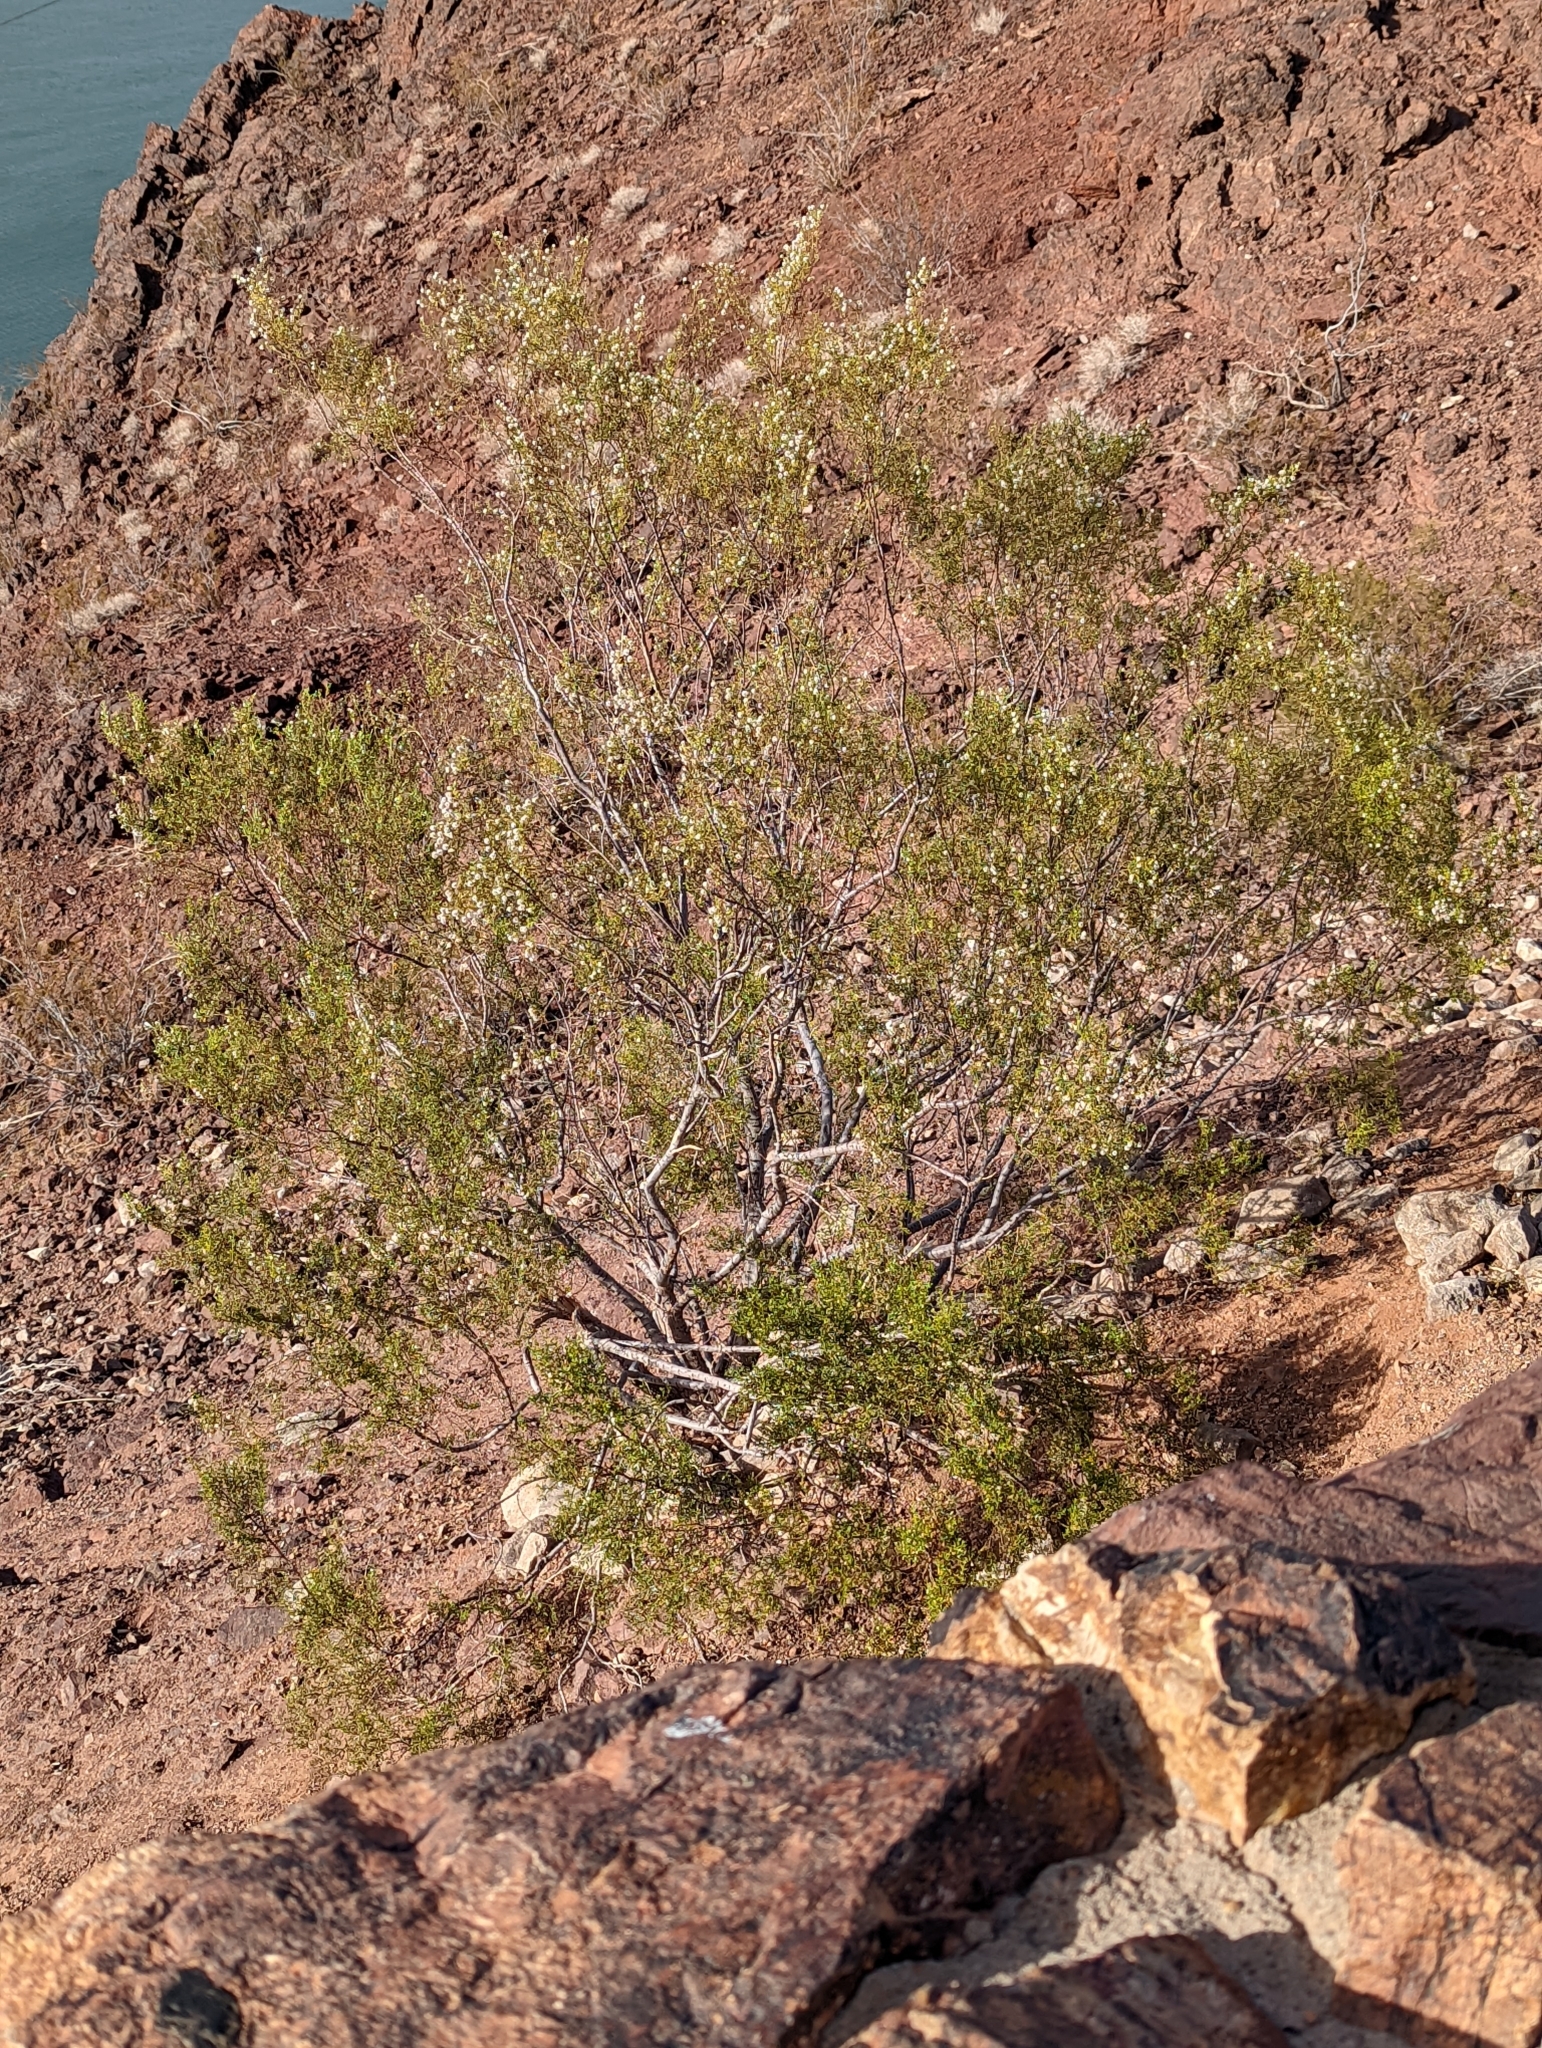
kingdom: Plantae
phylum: Tracheophyta
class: Magnoliopsida
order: Zygophyllales
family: Zygophyllaceae
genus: Larrea
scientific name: Larrea tridentata
